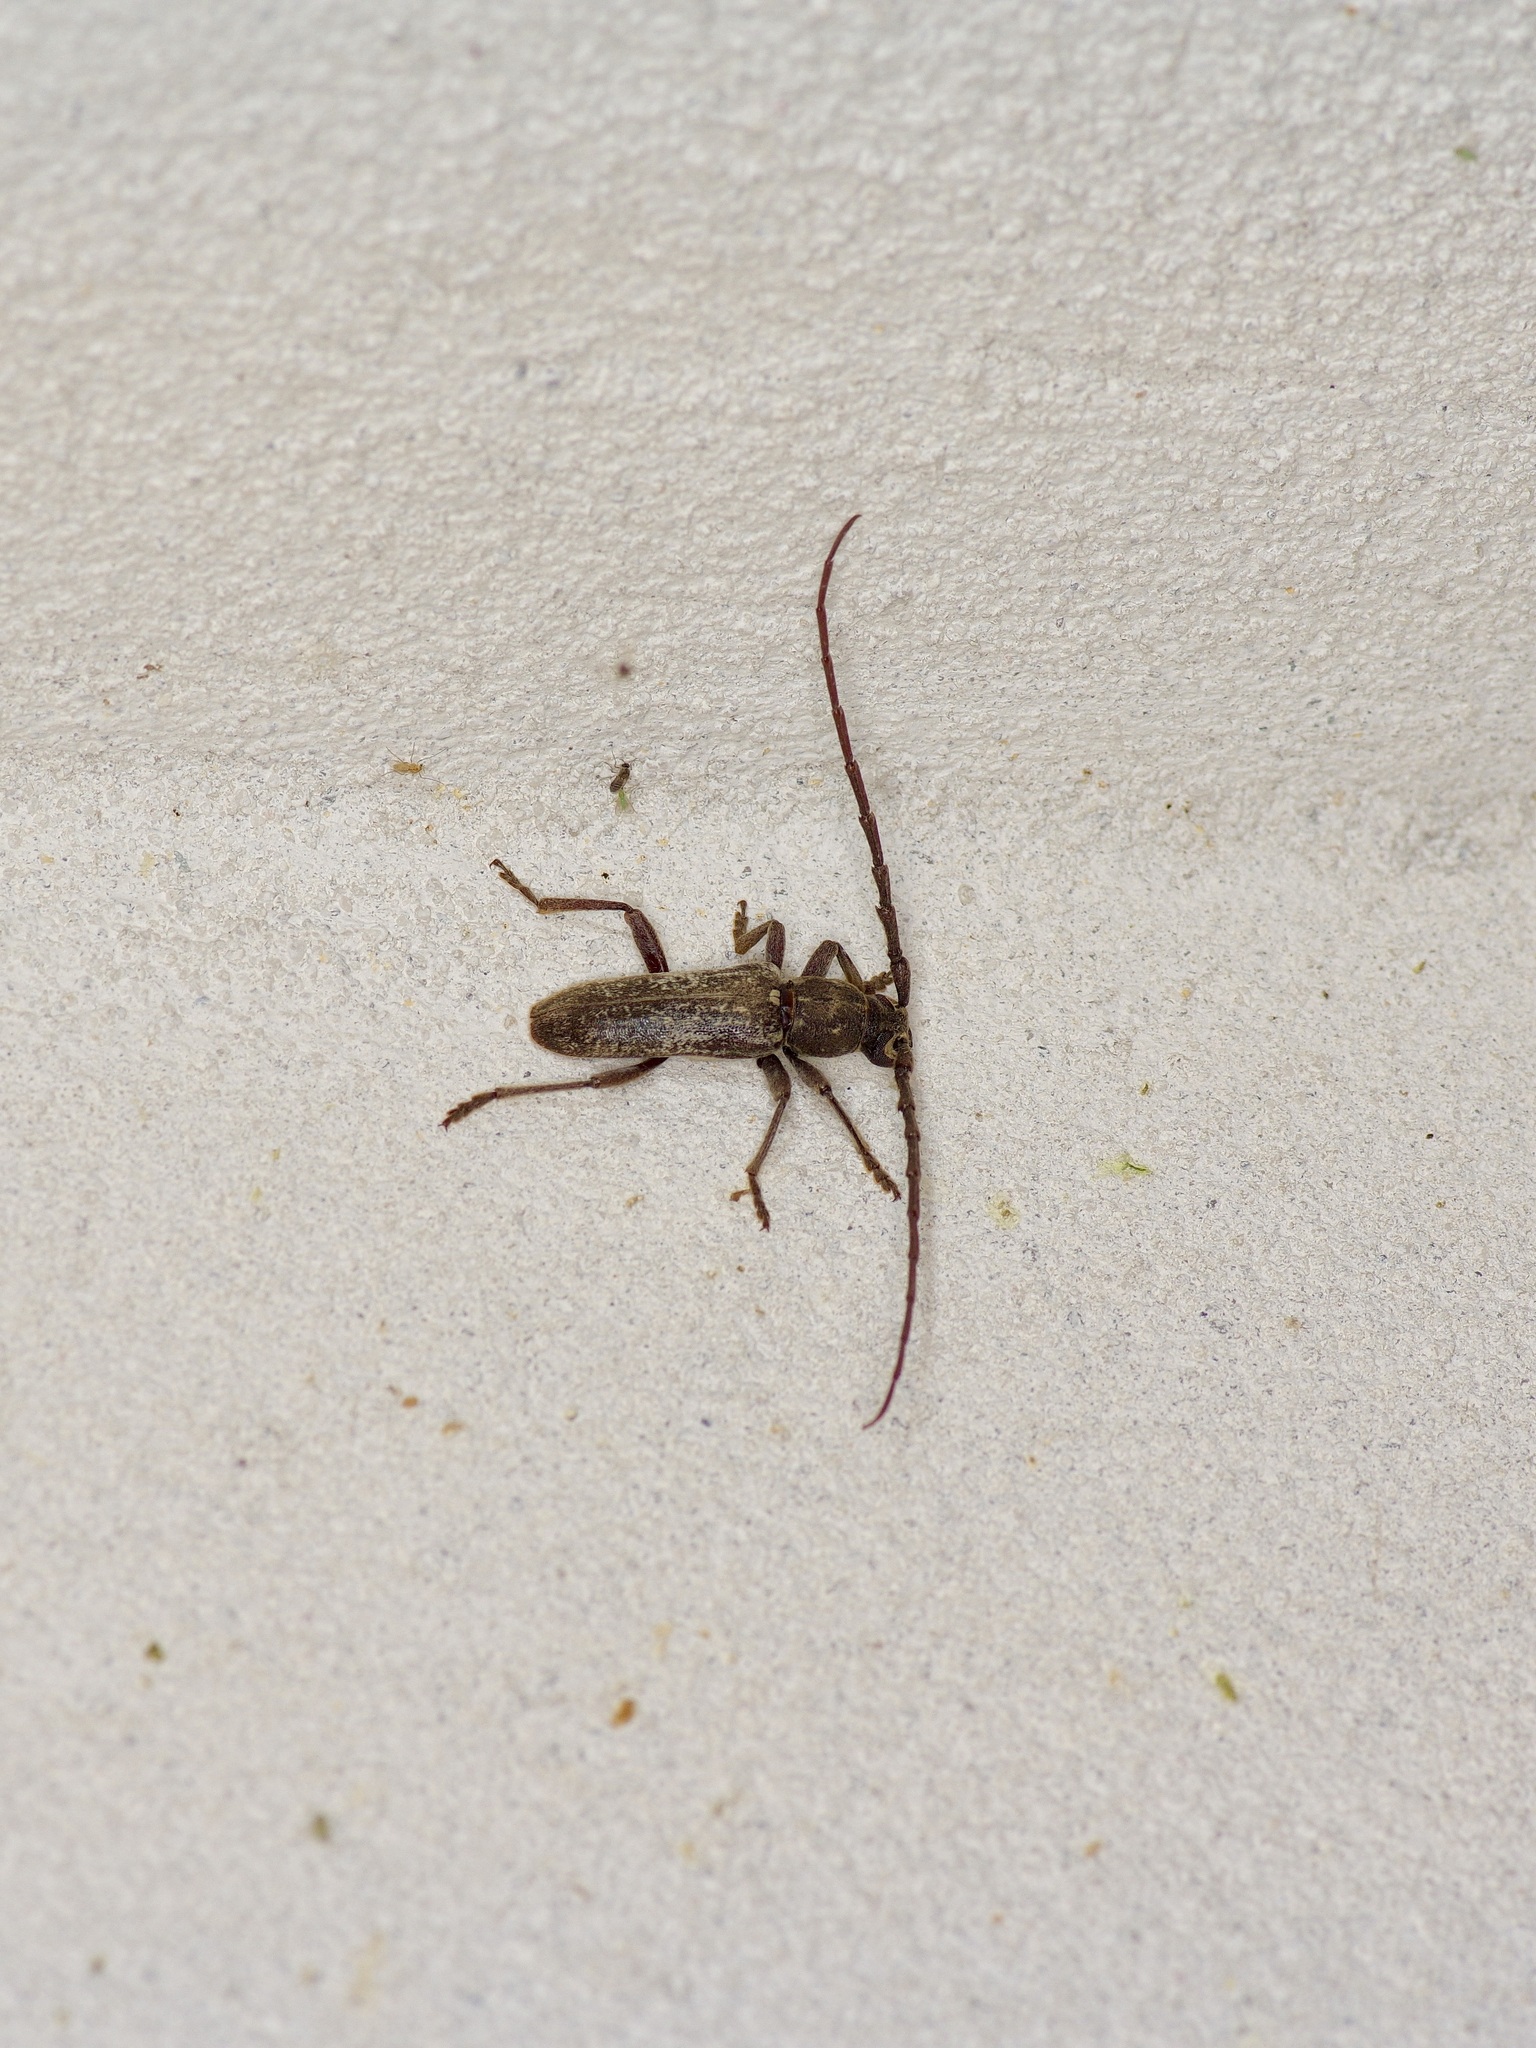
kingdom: Animalia
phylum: Arthropoda
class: Insecta
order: Coleoptera
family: Cerambycidae
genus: Anelaphus
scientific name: Anelaphus subinermis
